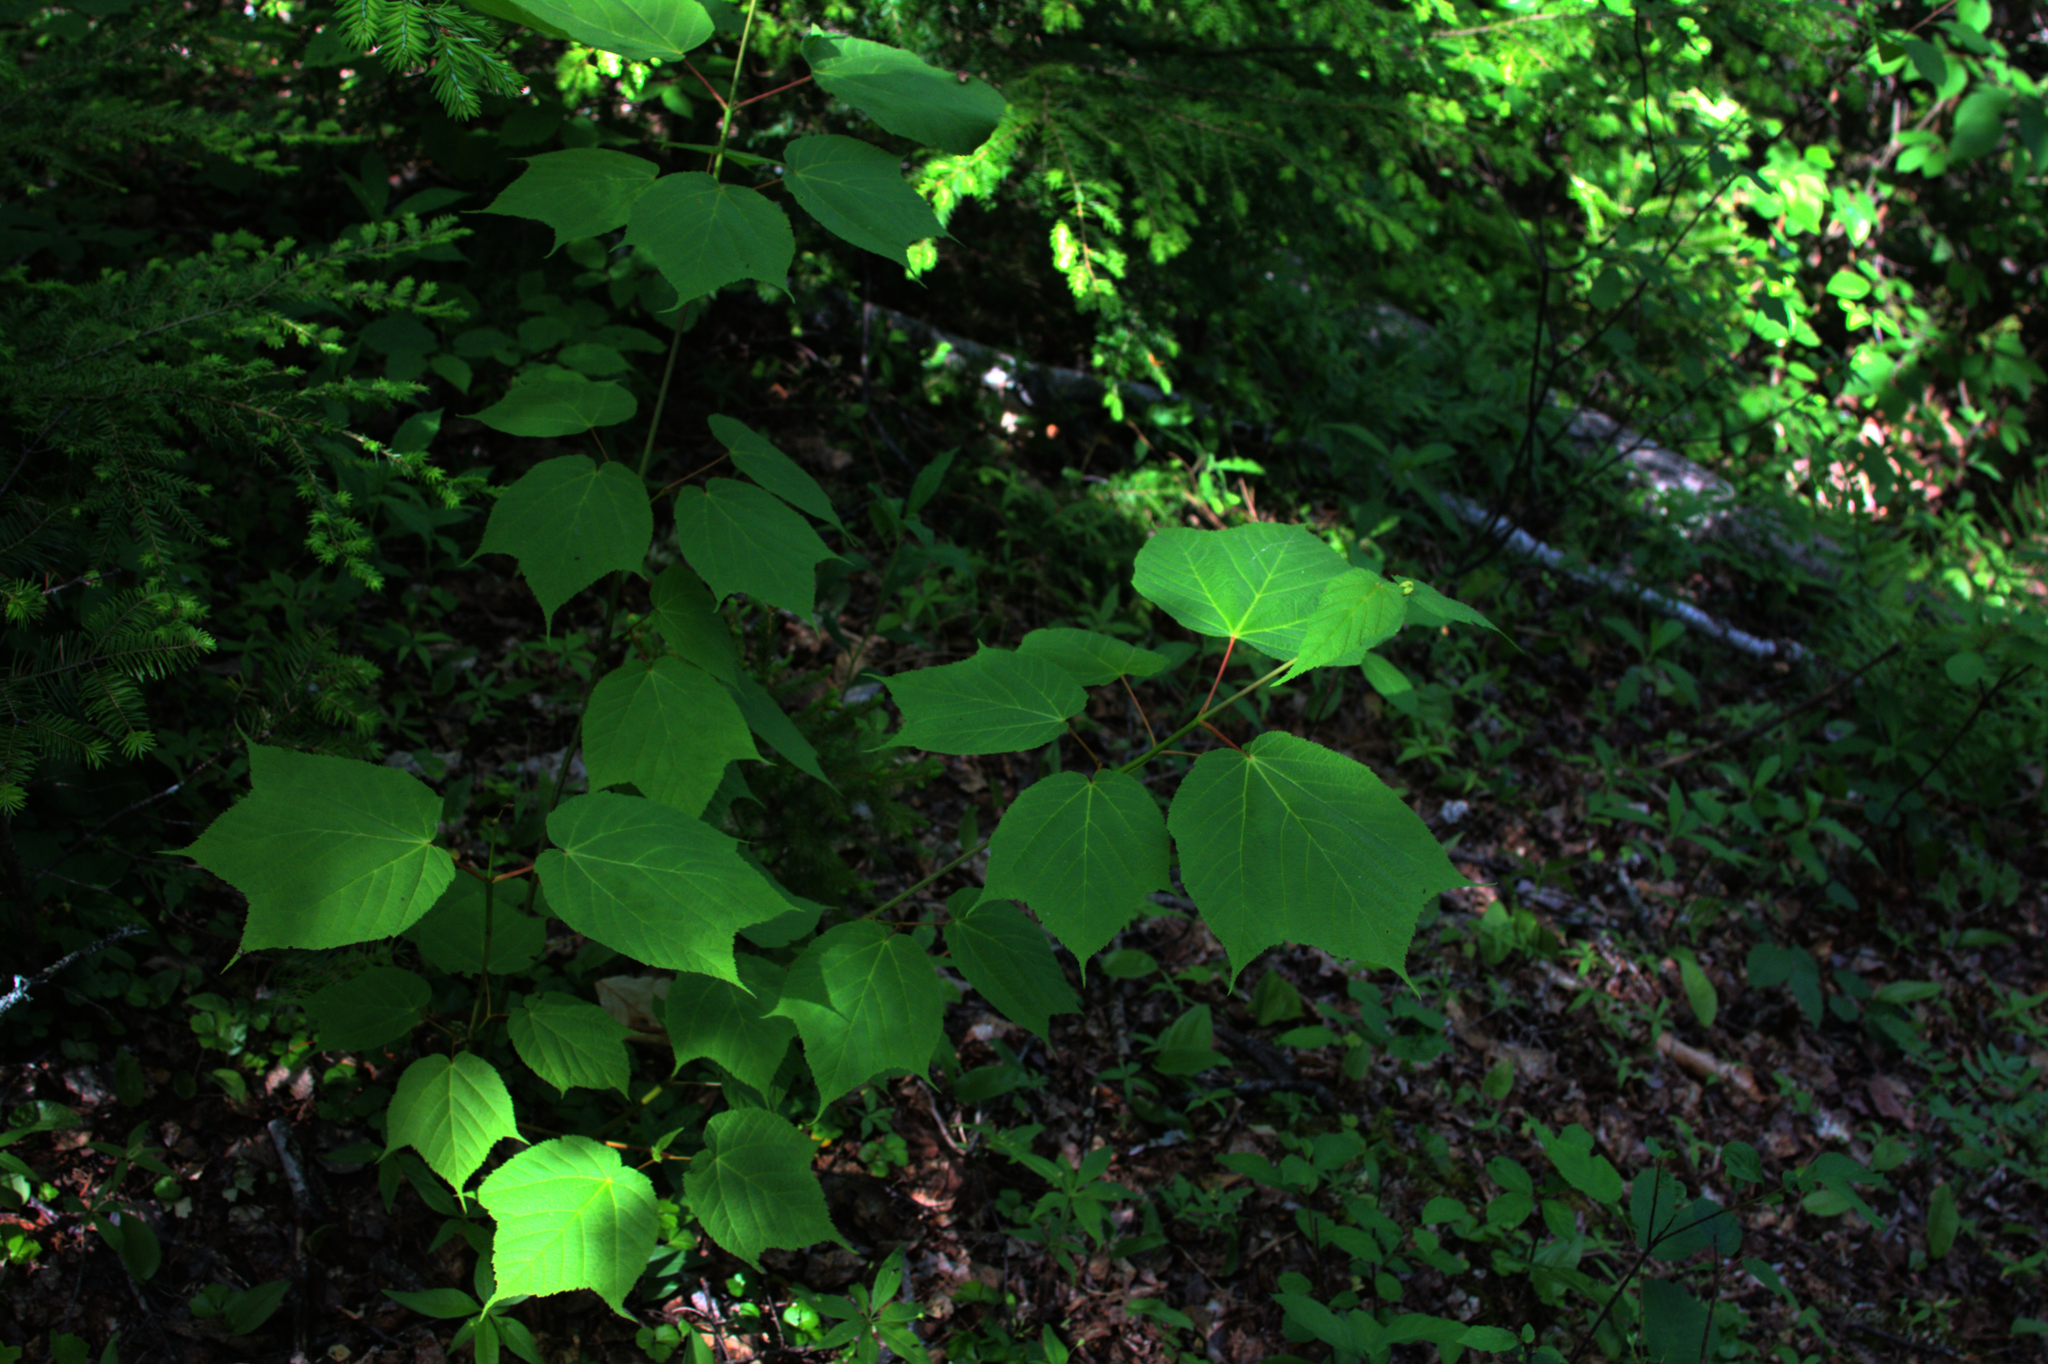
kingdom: Plantae
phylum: Tracheophyta
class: Magnoliopsida
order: Sapindales
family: Sapindaceae
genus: Acer
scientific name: Acer pensylvanicum
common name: Moosewood
